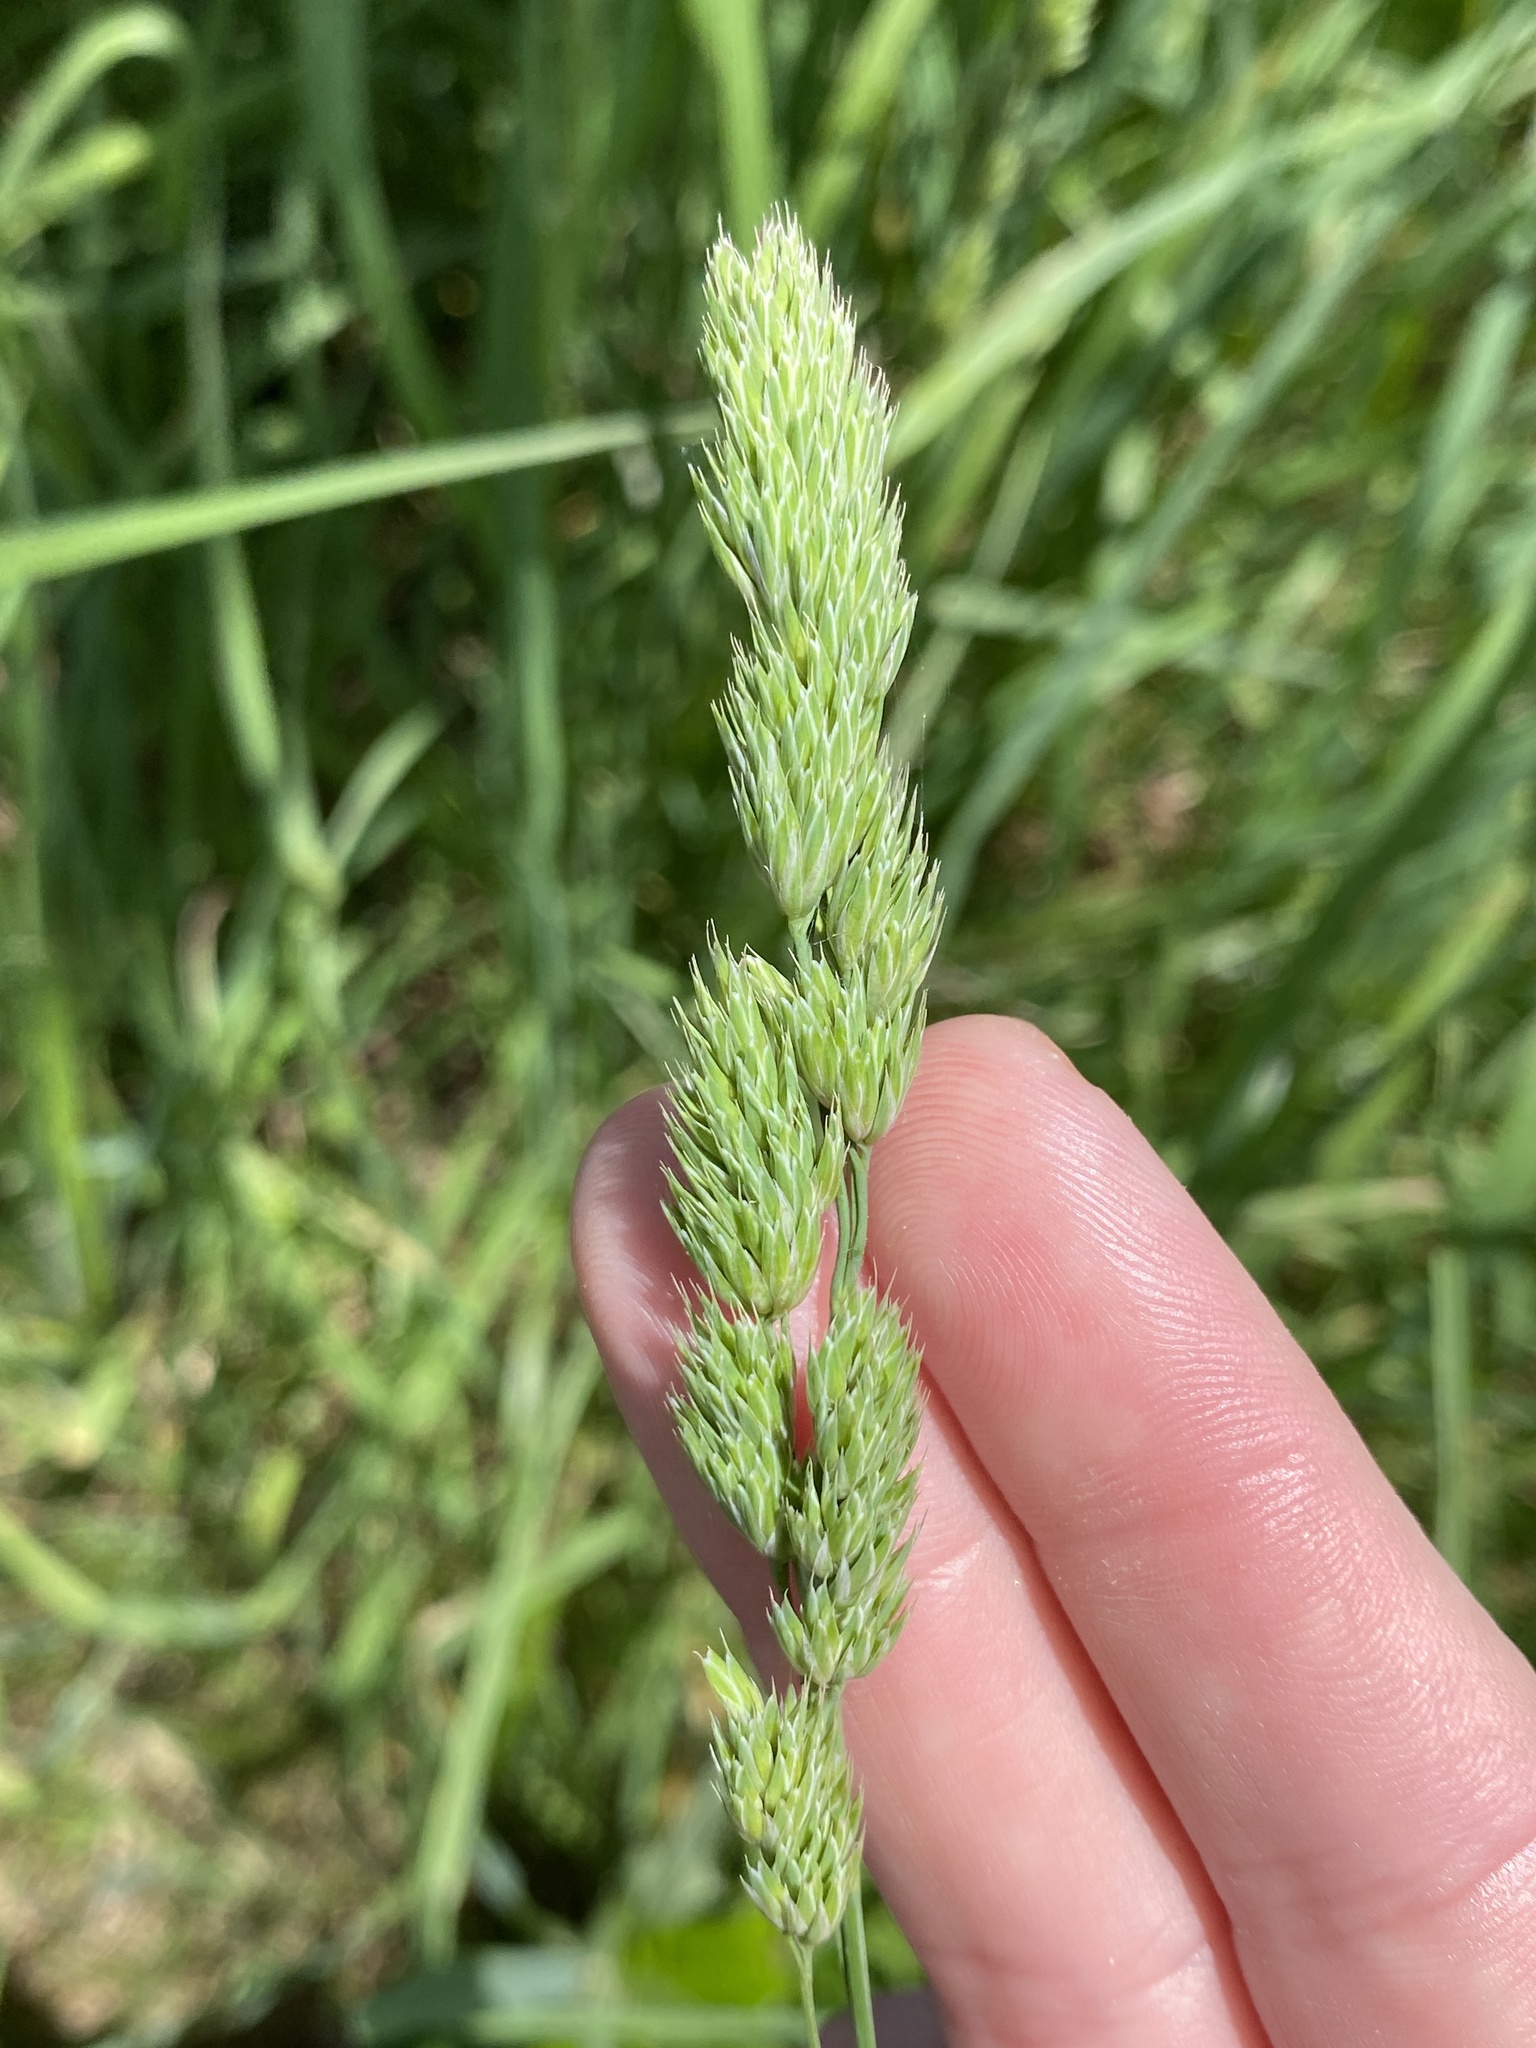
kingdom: Plantae
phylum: Tracheophyta
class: Liliopsida
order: Poales
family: Poaceae
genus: Dactylis
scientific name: Dactylis glomerata
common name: Orchardgrass
